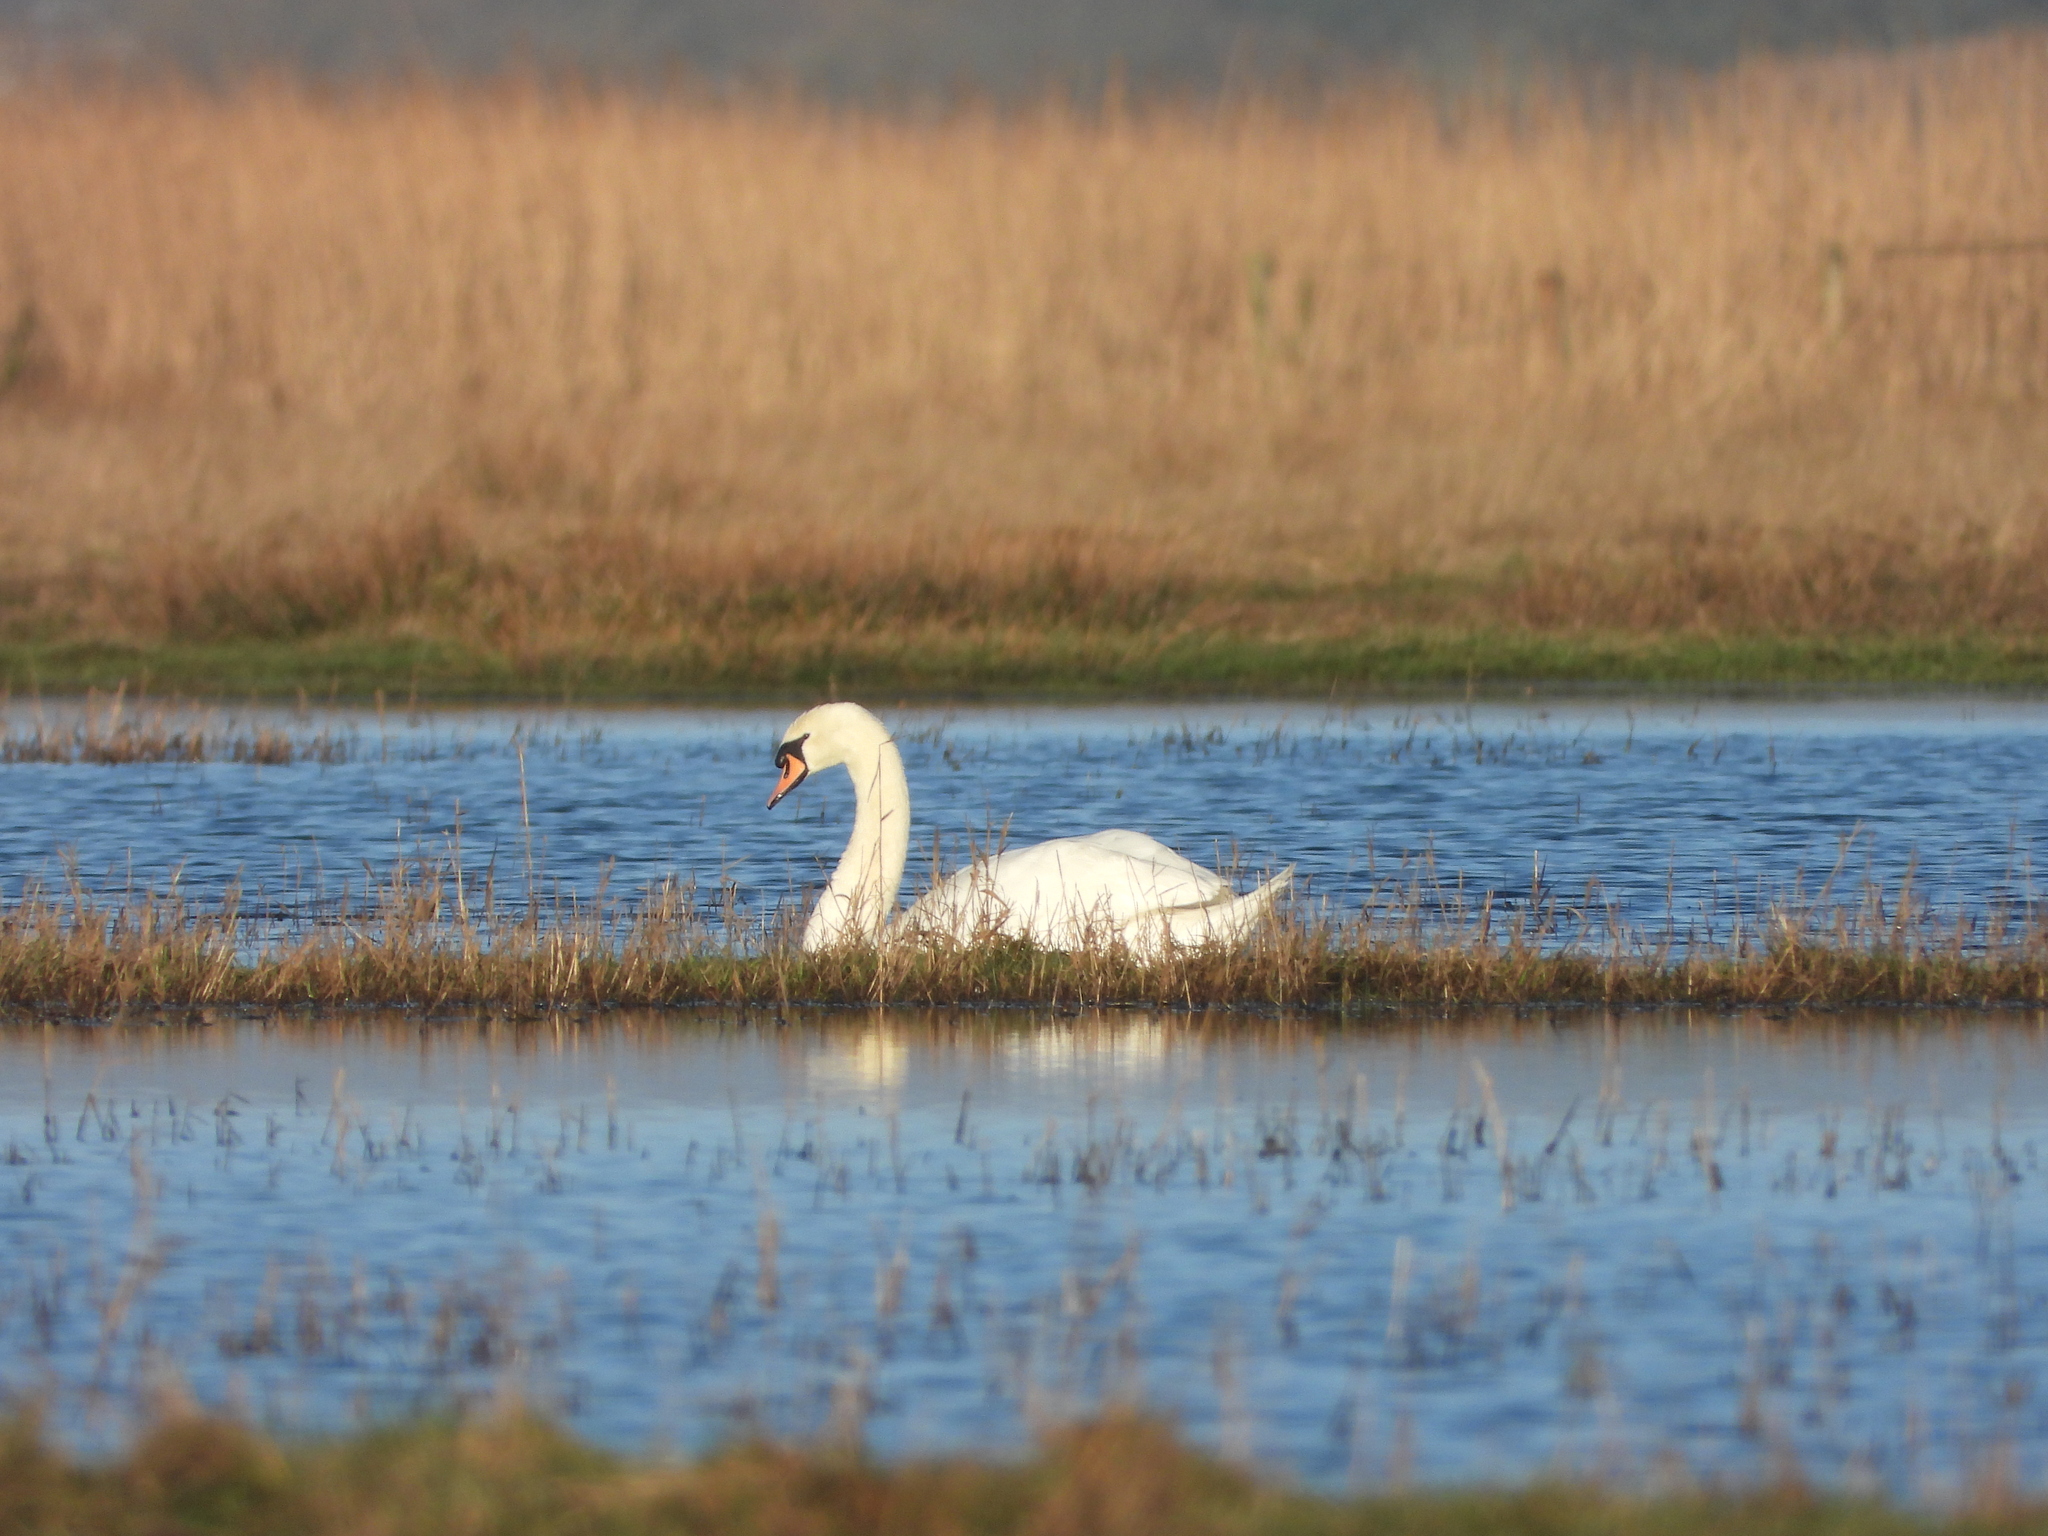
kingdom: Animalia
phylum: Chordata
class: Aves
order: Anseriformes
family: Anatidae
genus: Cygnus
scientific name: Cygnus olor
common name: Mute swan
